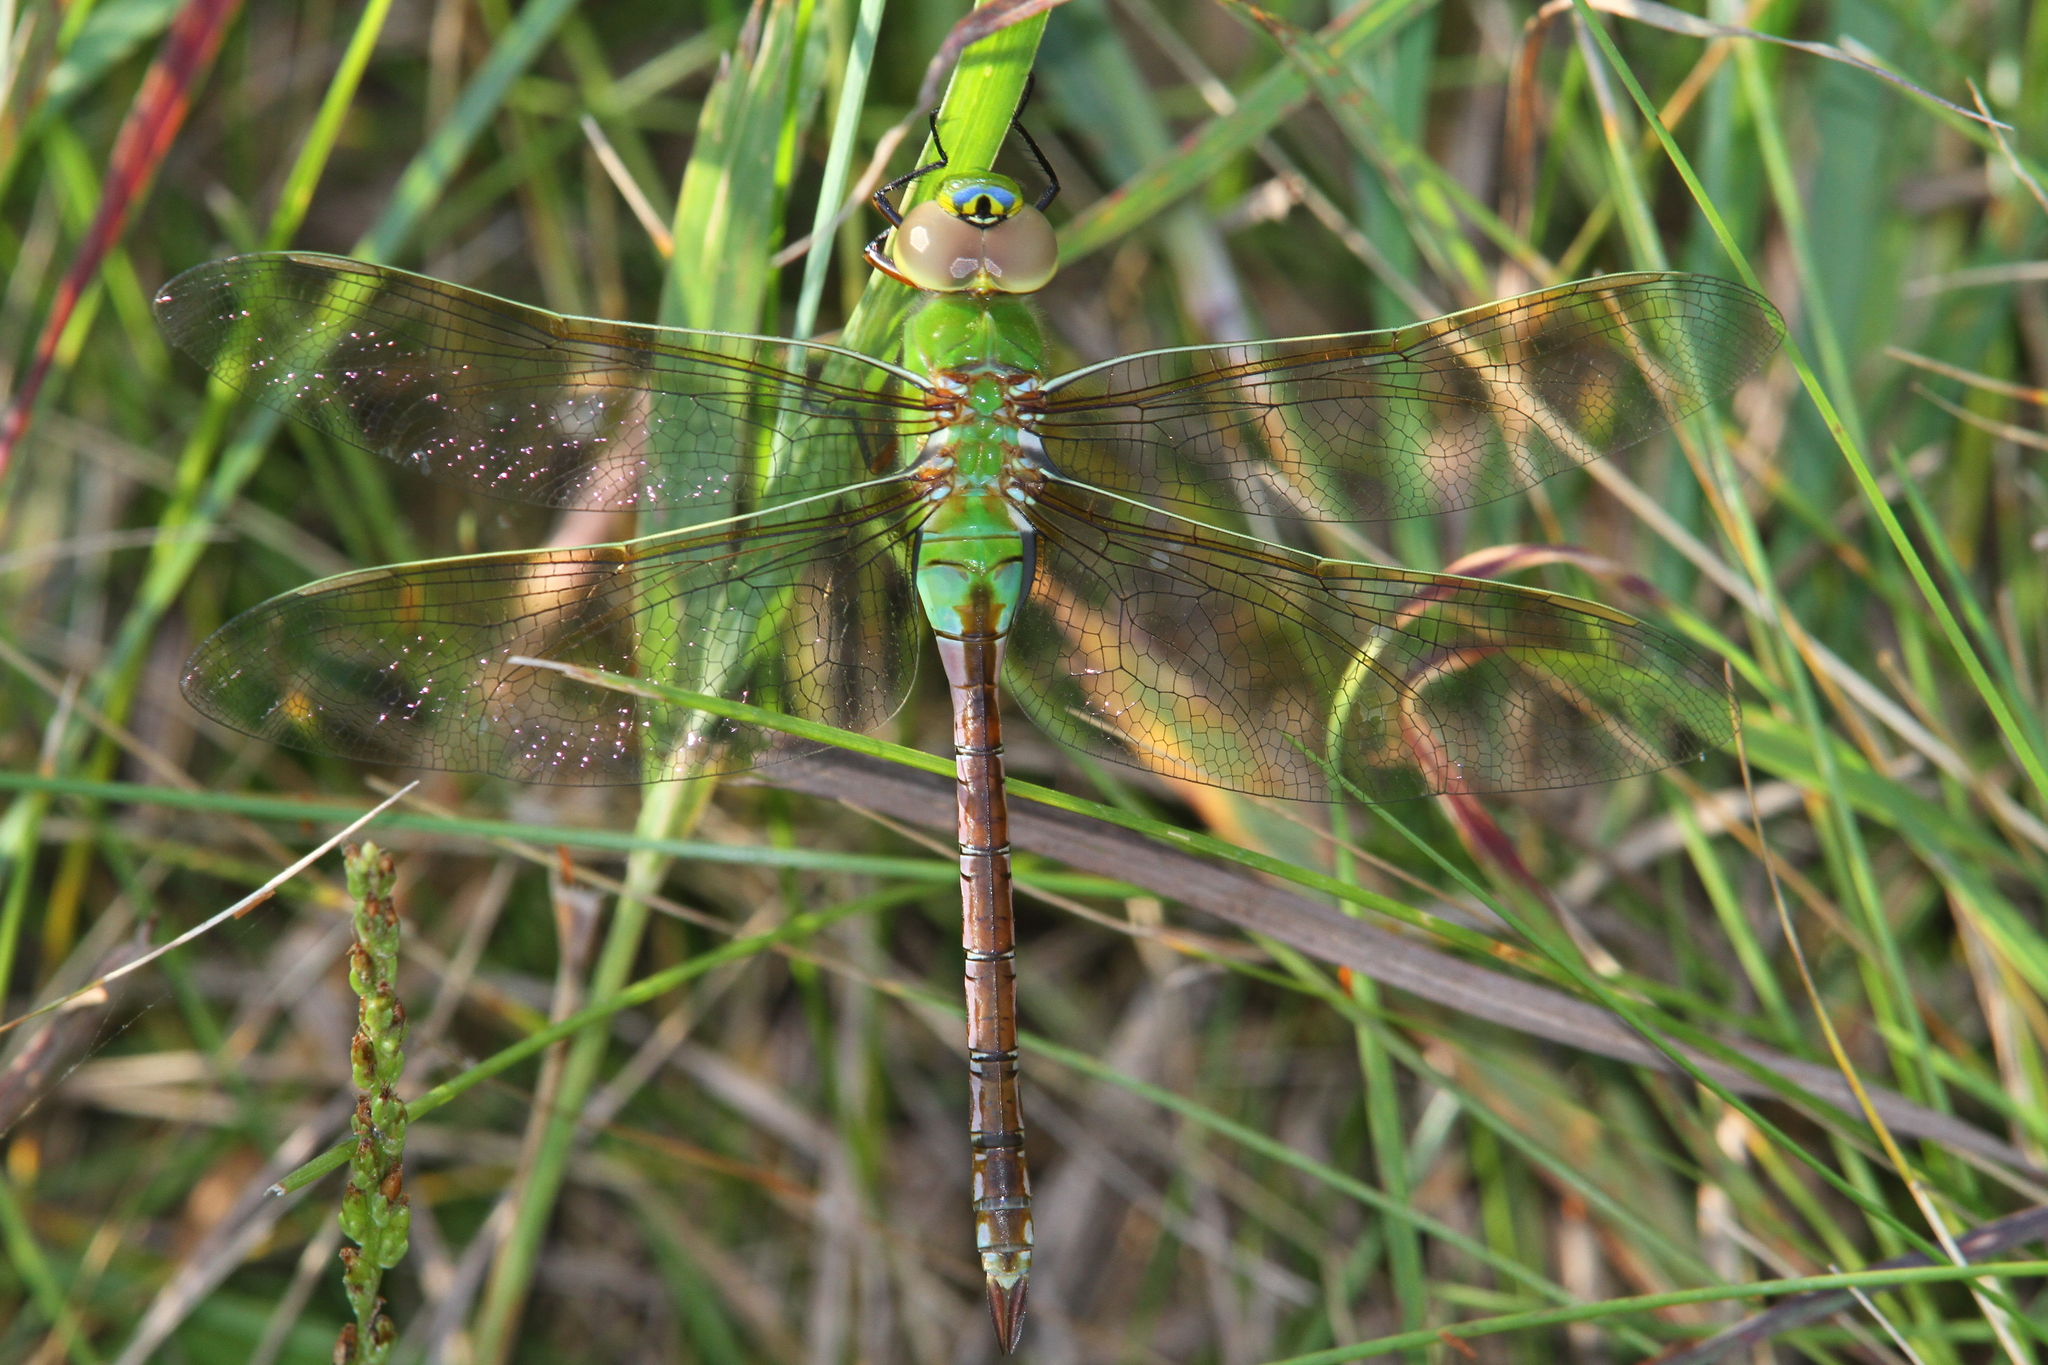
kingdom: Animalia
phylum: Arthropoda
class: Insecta
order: Odonata
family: Aeshnidae
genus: Anax
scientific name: Anax junius
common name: Common green darner
